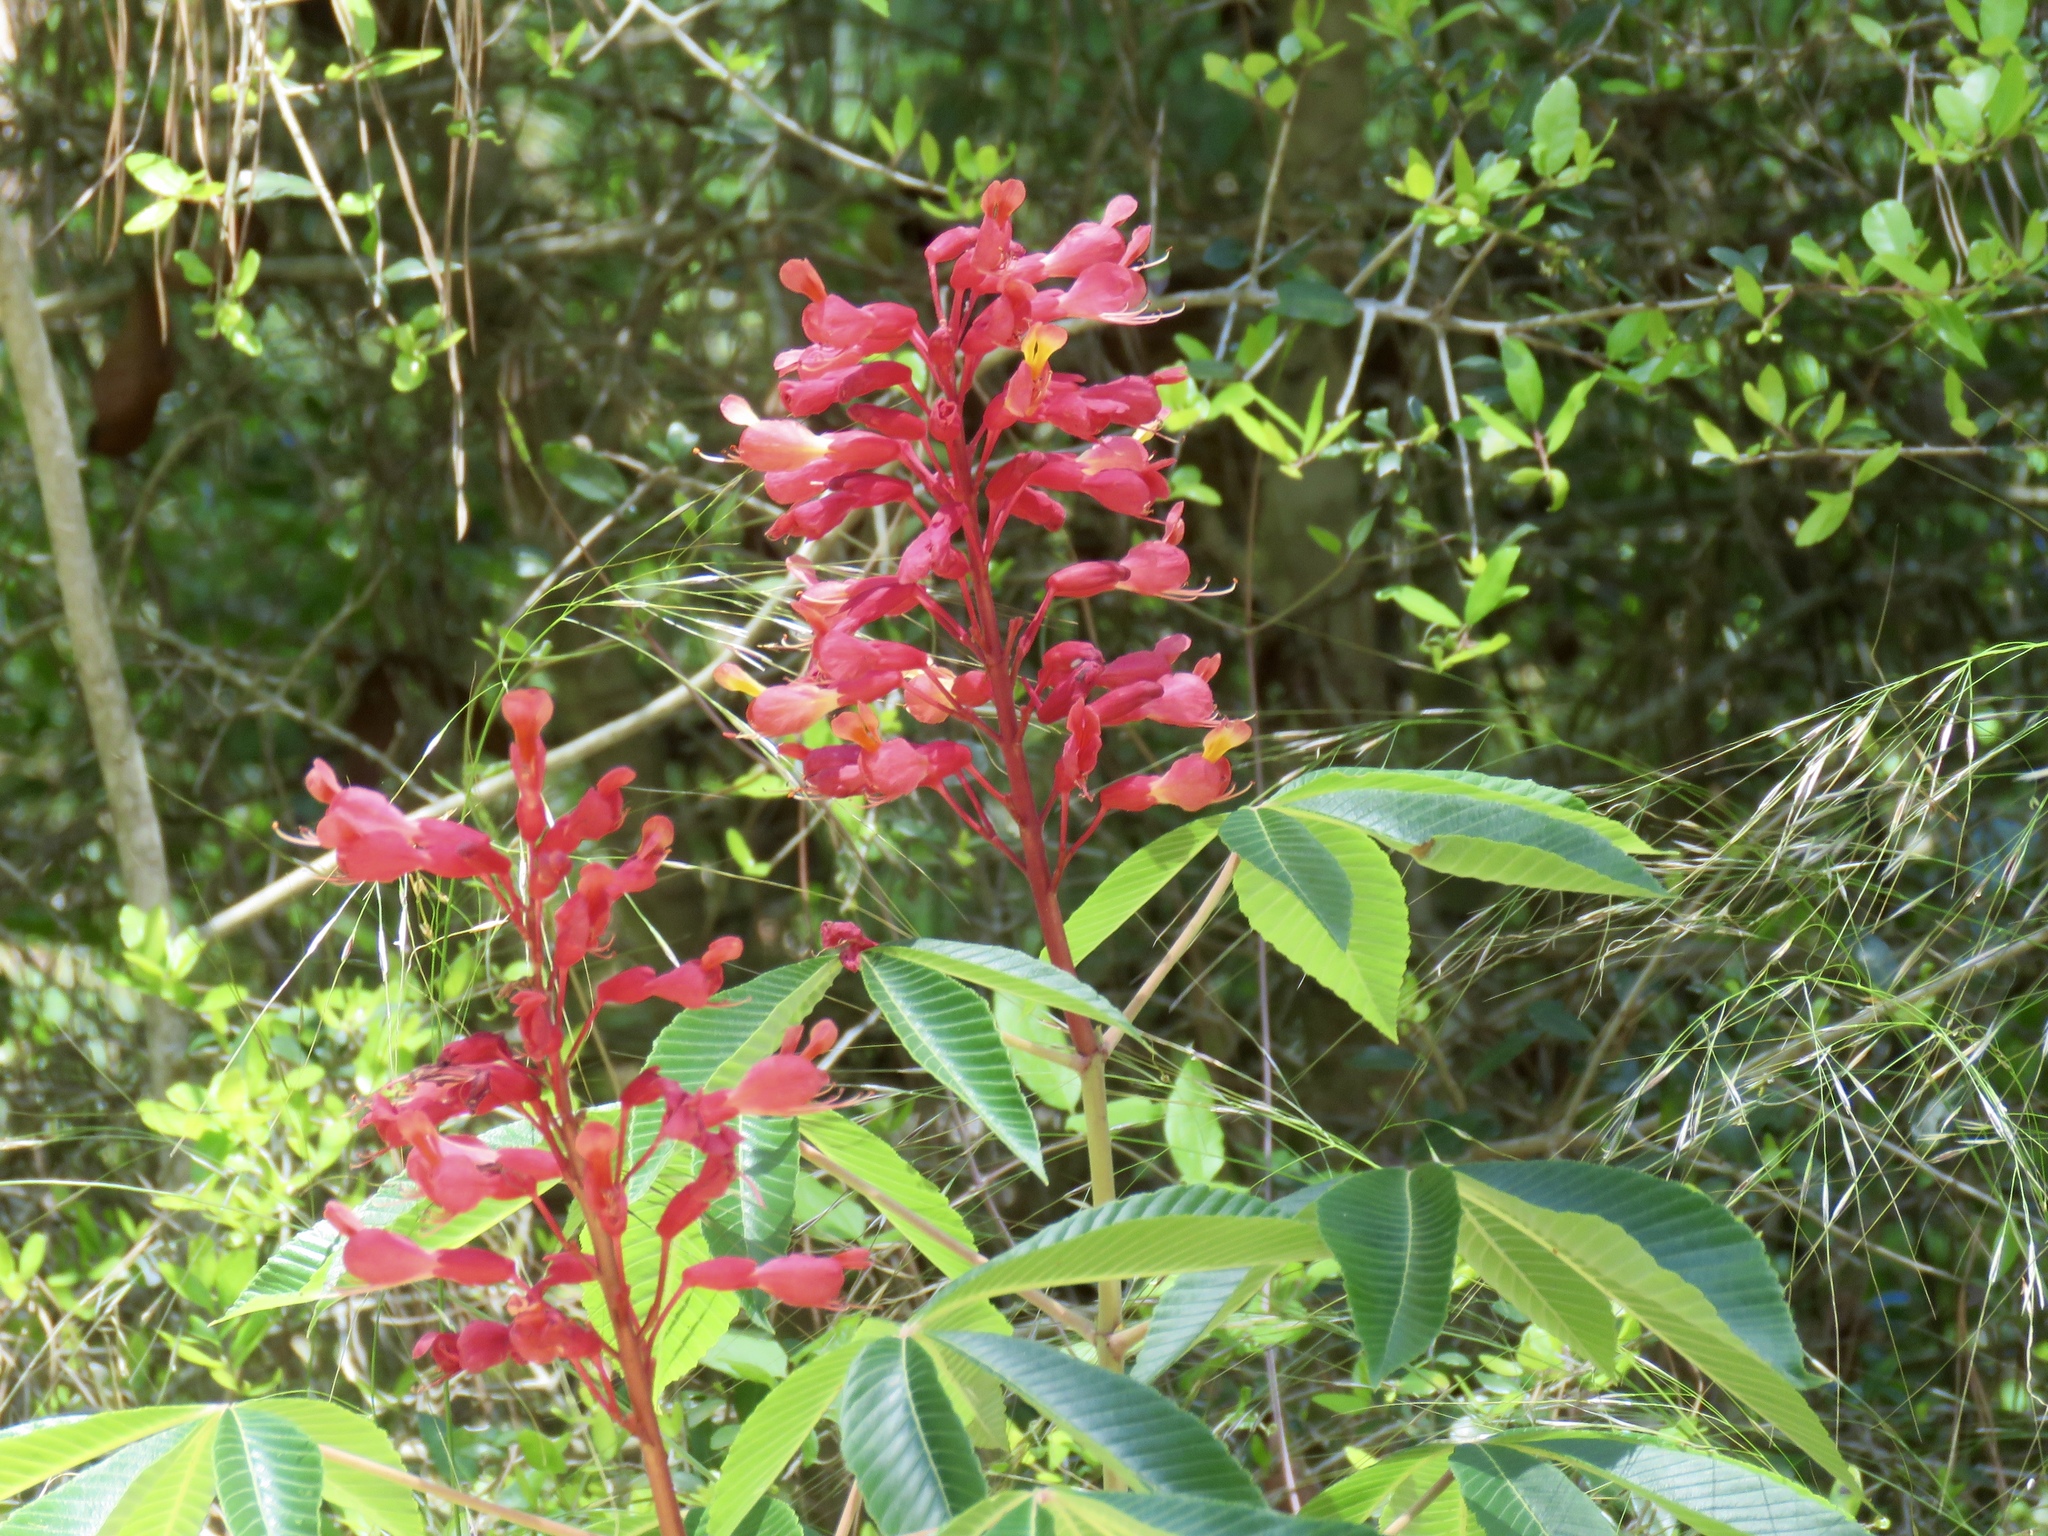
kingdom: Plantae
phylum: Tracheophyta
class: Magnoliopsida
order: Sapindales
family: Sapindaceae
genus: Aesculus
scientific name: Aesculus pavia
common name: Red buckeye
